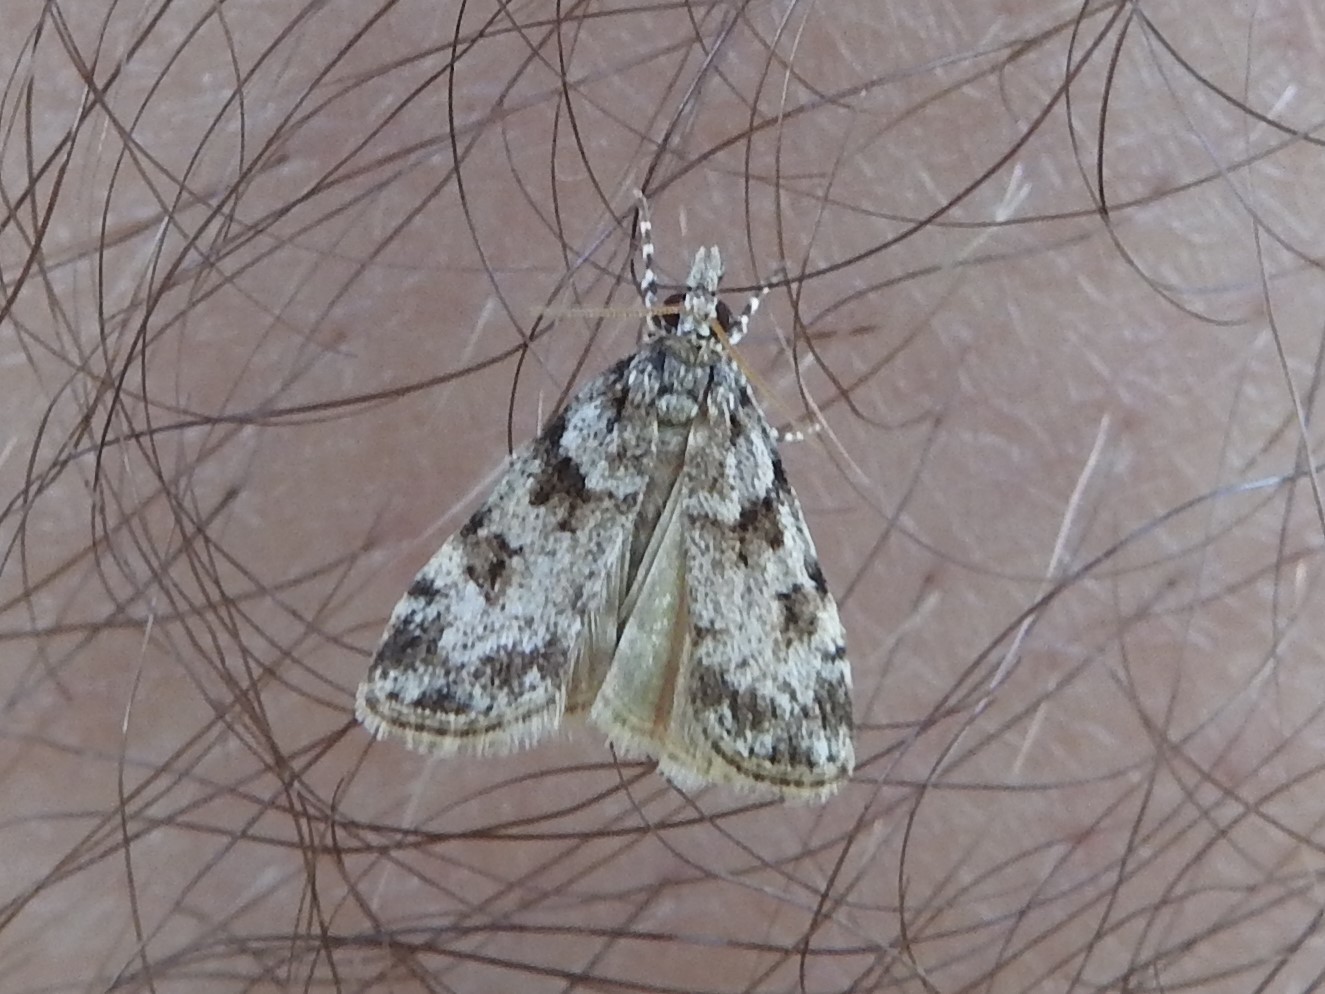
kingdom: Animalia
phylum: Arthropoda
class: Insecta
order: Lepidoptera
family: Crambidae
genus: Scoparia
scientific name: Scoparia biplagialis
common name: Double-striped scoparia moth
